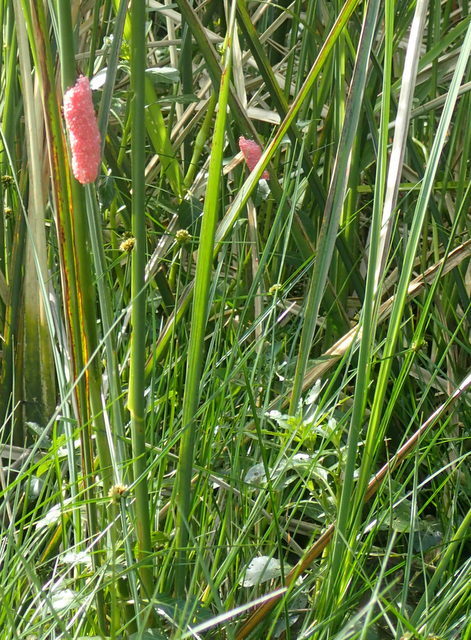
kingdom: Animalia
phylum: Mollusca
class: Gastropoda
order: Architaenioglossa
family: Ampullariidae
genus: Pomacea
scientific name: Pomacea maculata
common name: Giant applesnail
